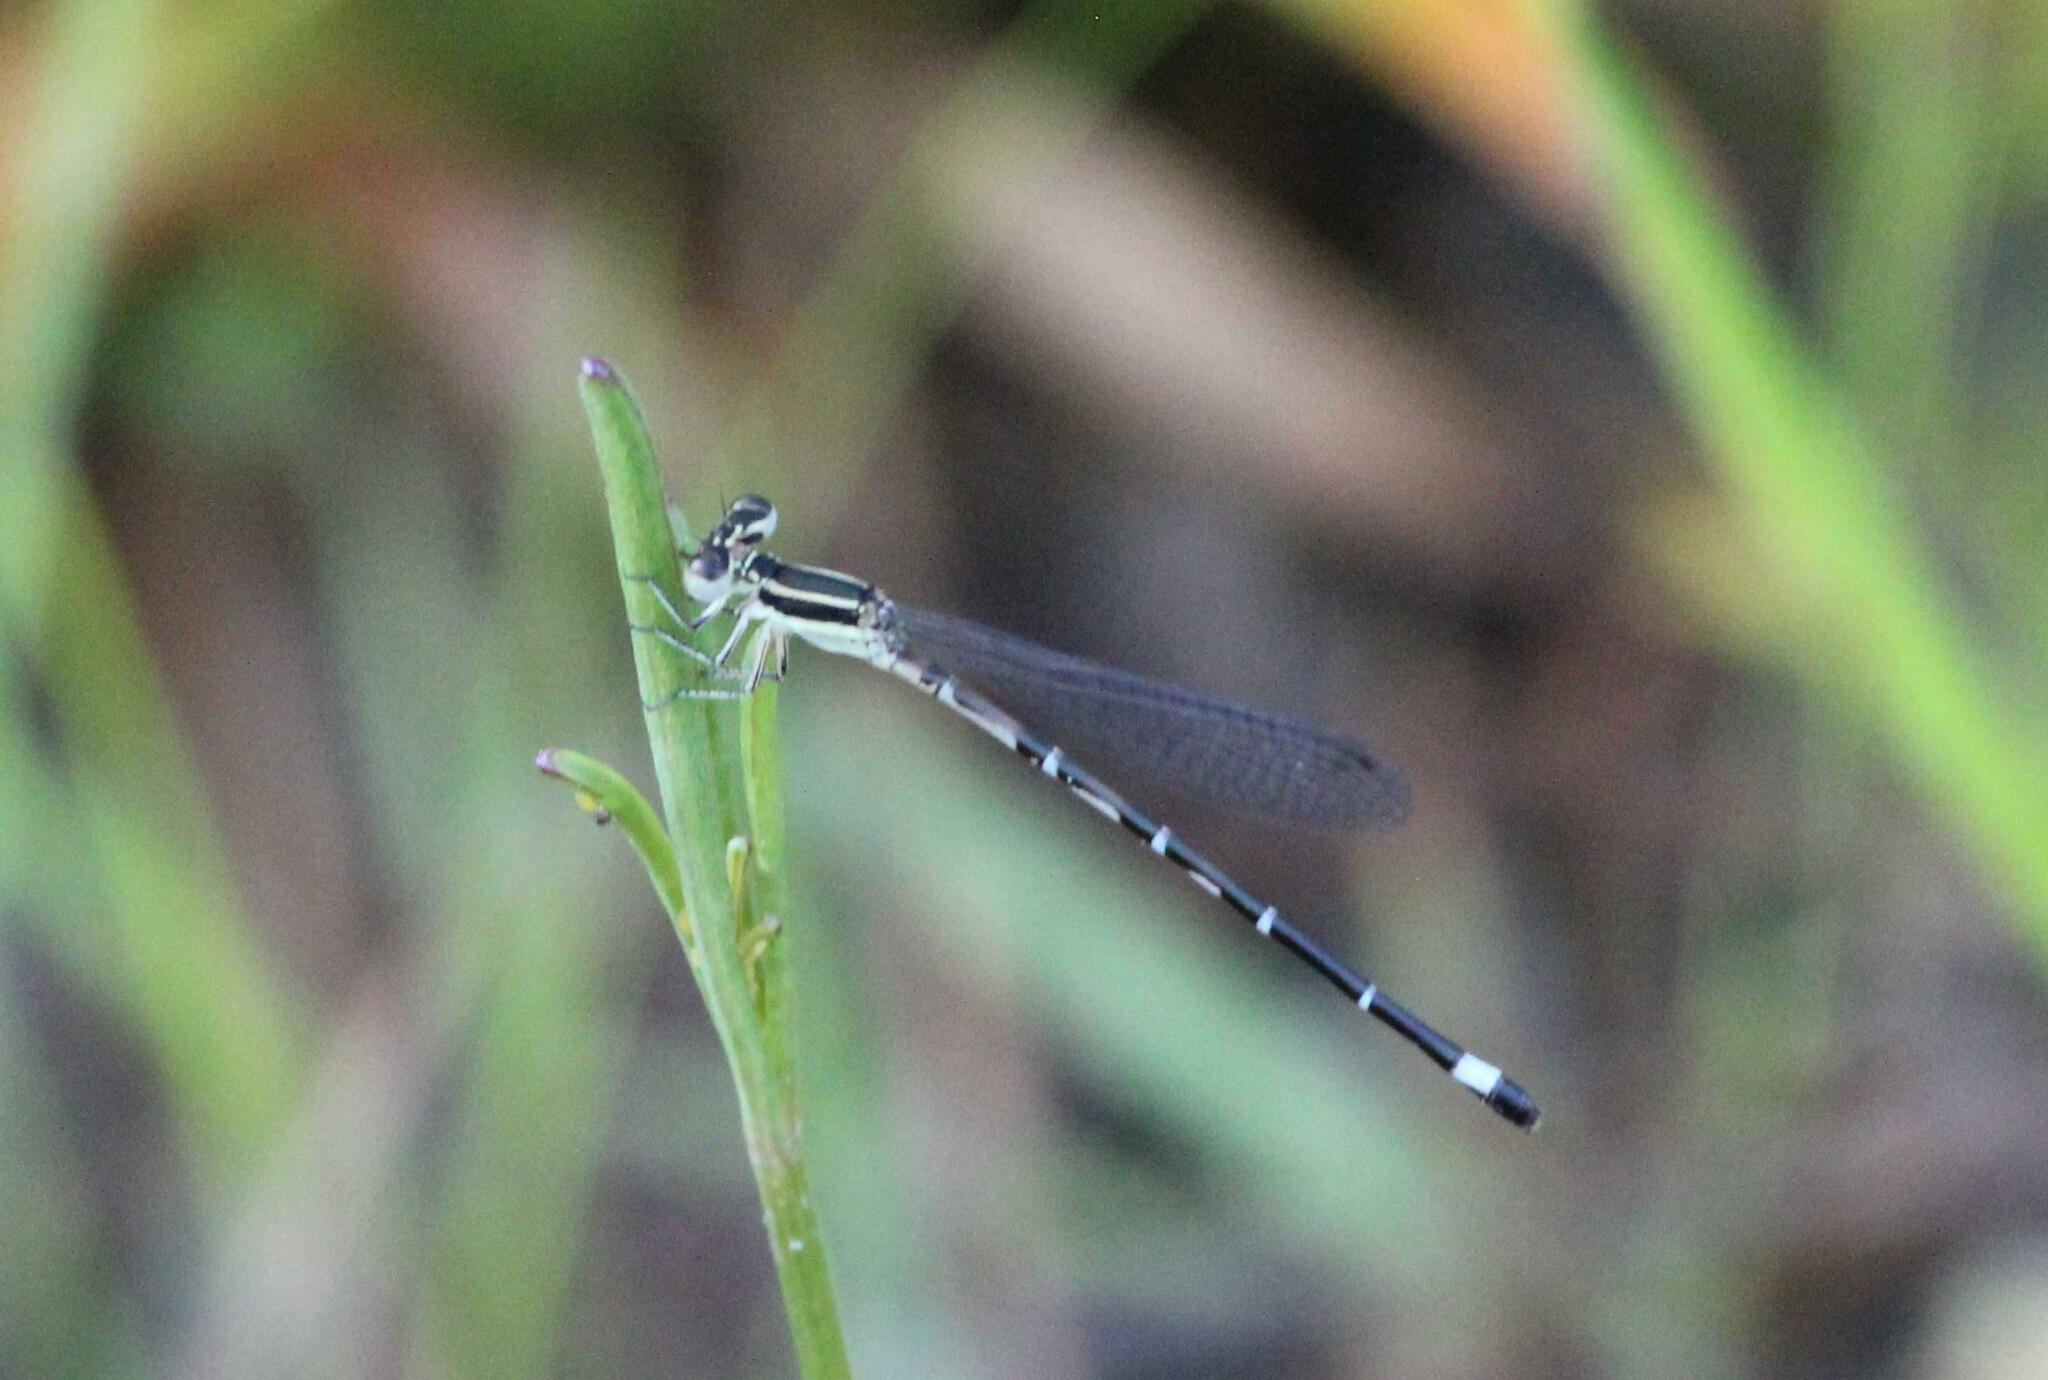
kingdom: Animalia
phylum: Arthropoda
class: Insecta
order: Odonata
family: Coenagrionidae
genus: Argia
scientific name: Argia bipunctulata
